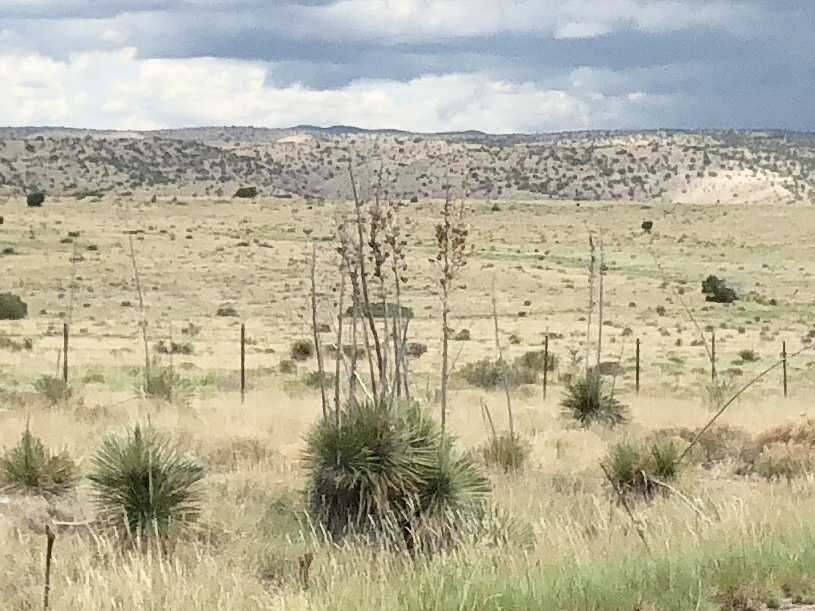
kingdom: Plantae
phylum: Tracheophyta
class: Liliopsida
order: Asparagales
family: Asparagaceae
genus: Yucca
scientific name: Yucca elata
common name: Palmella
